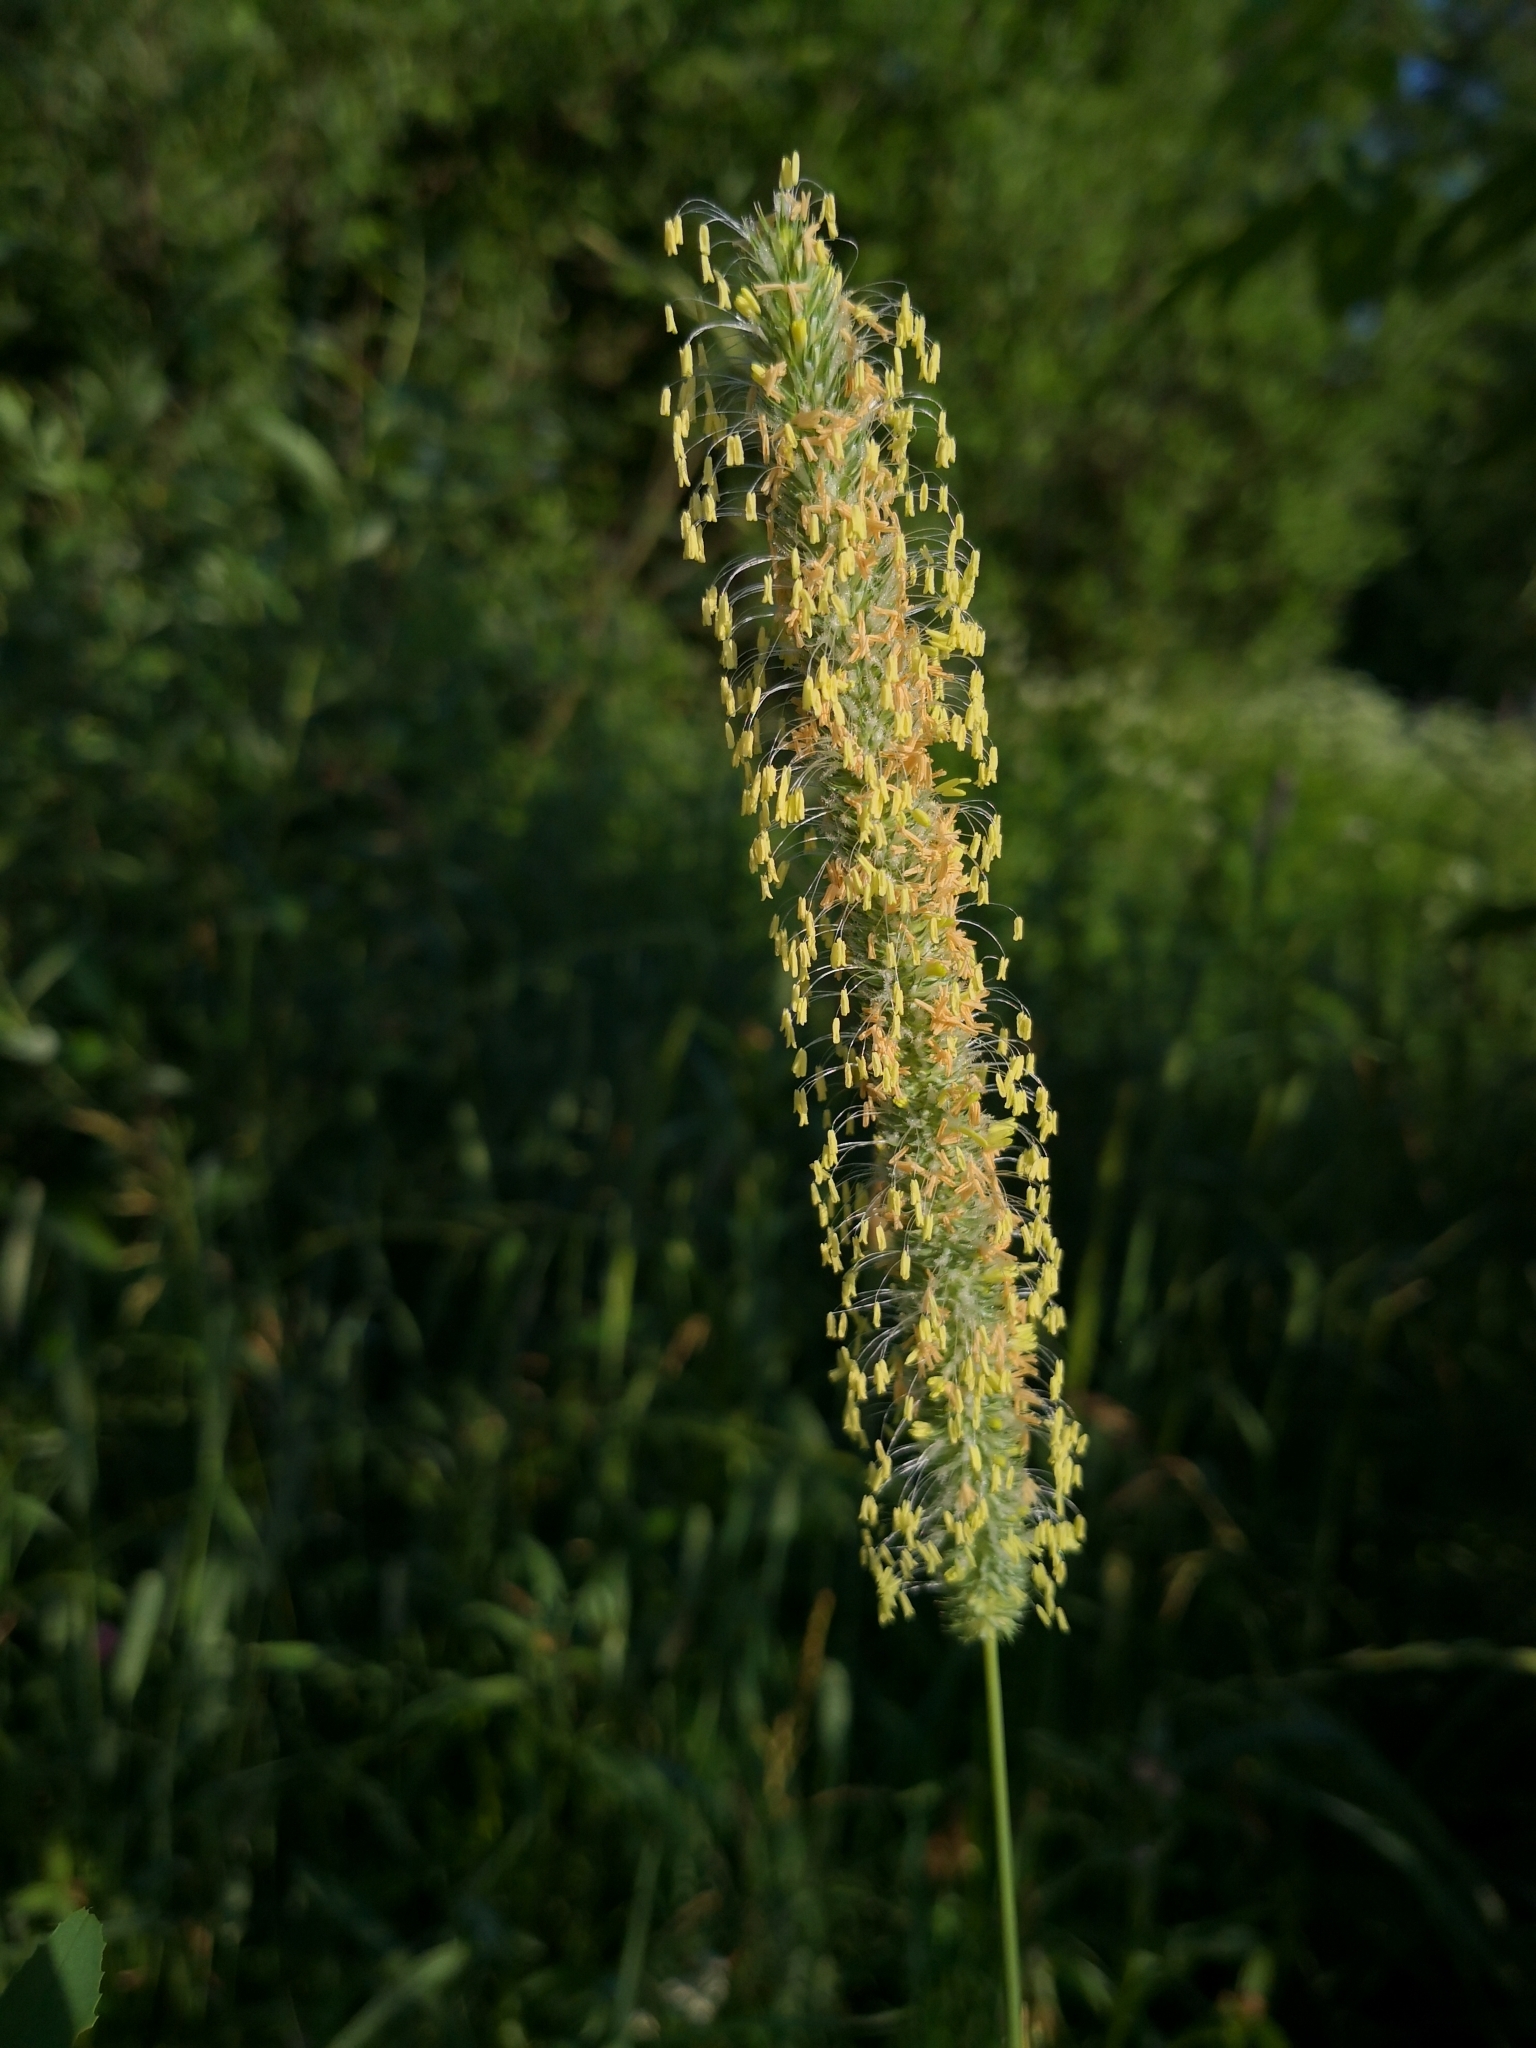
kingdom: Plantae
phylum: Tracheophyta
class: Liliopsida
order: Poales
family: Poaceae
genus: Phleum
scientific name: Phleum pratense
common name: Timothy grass
